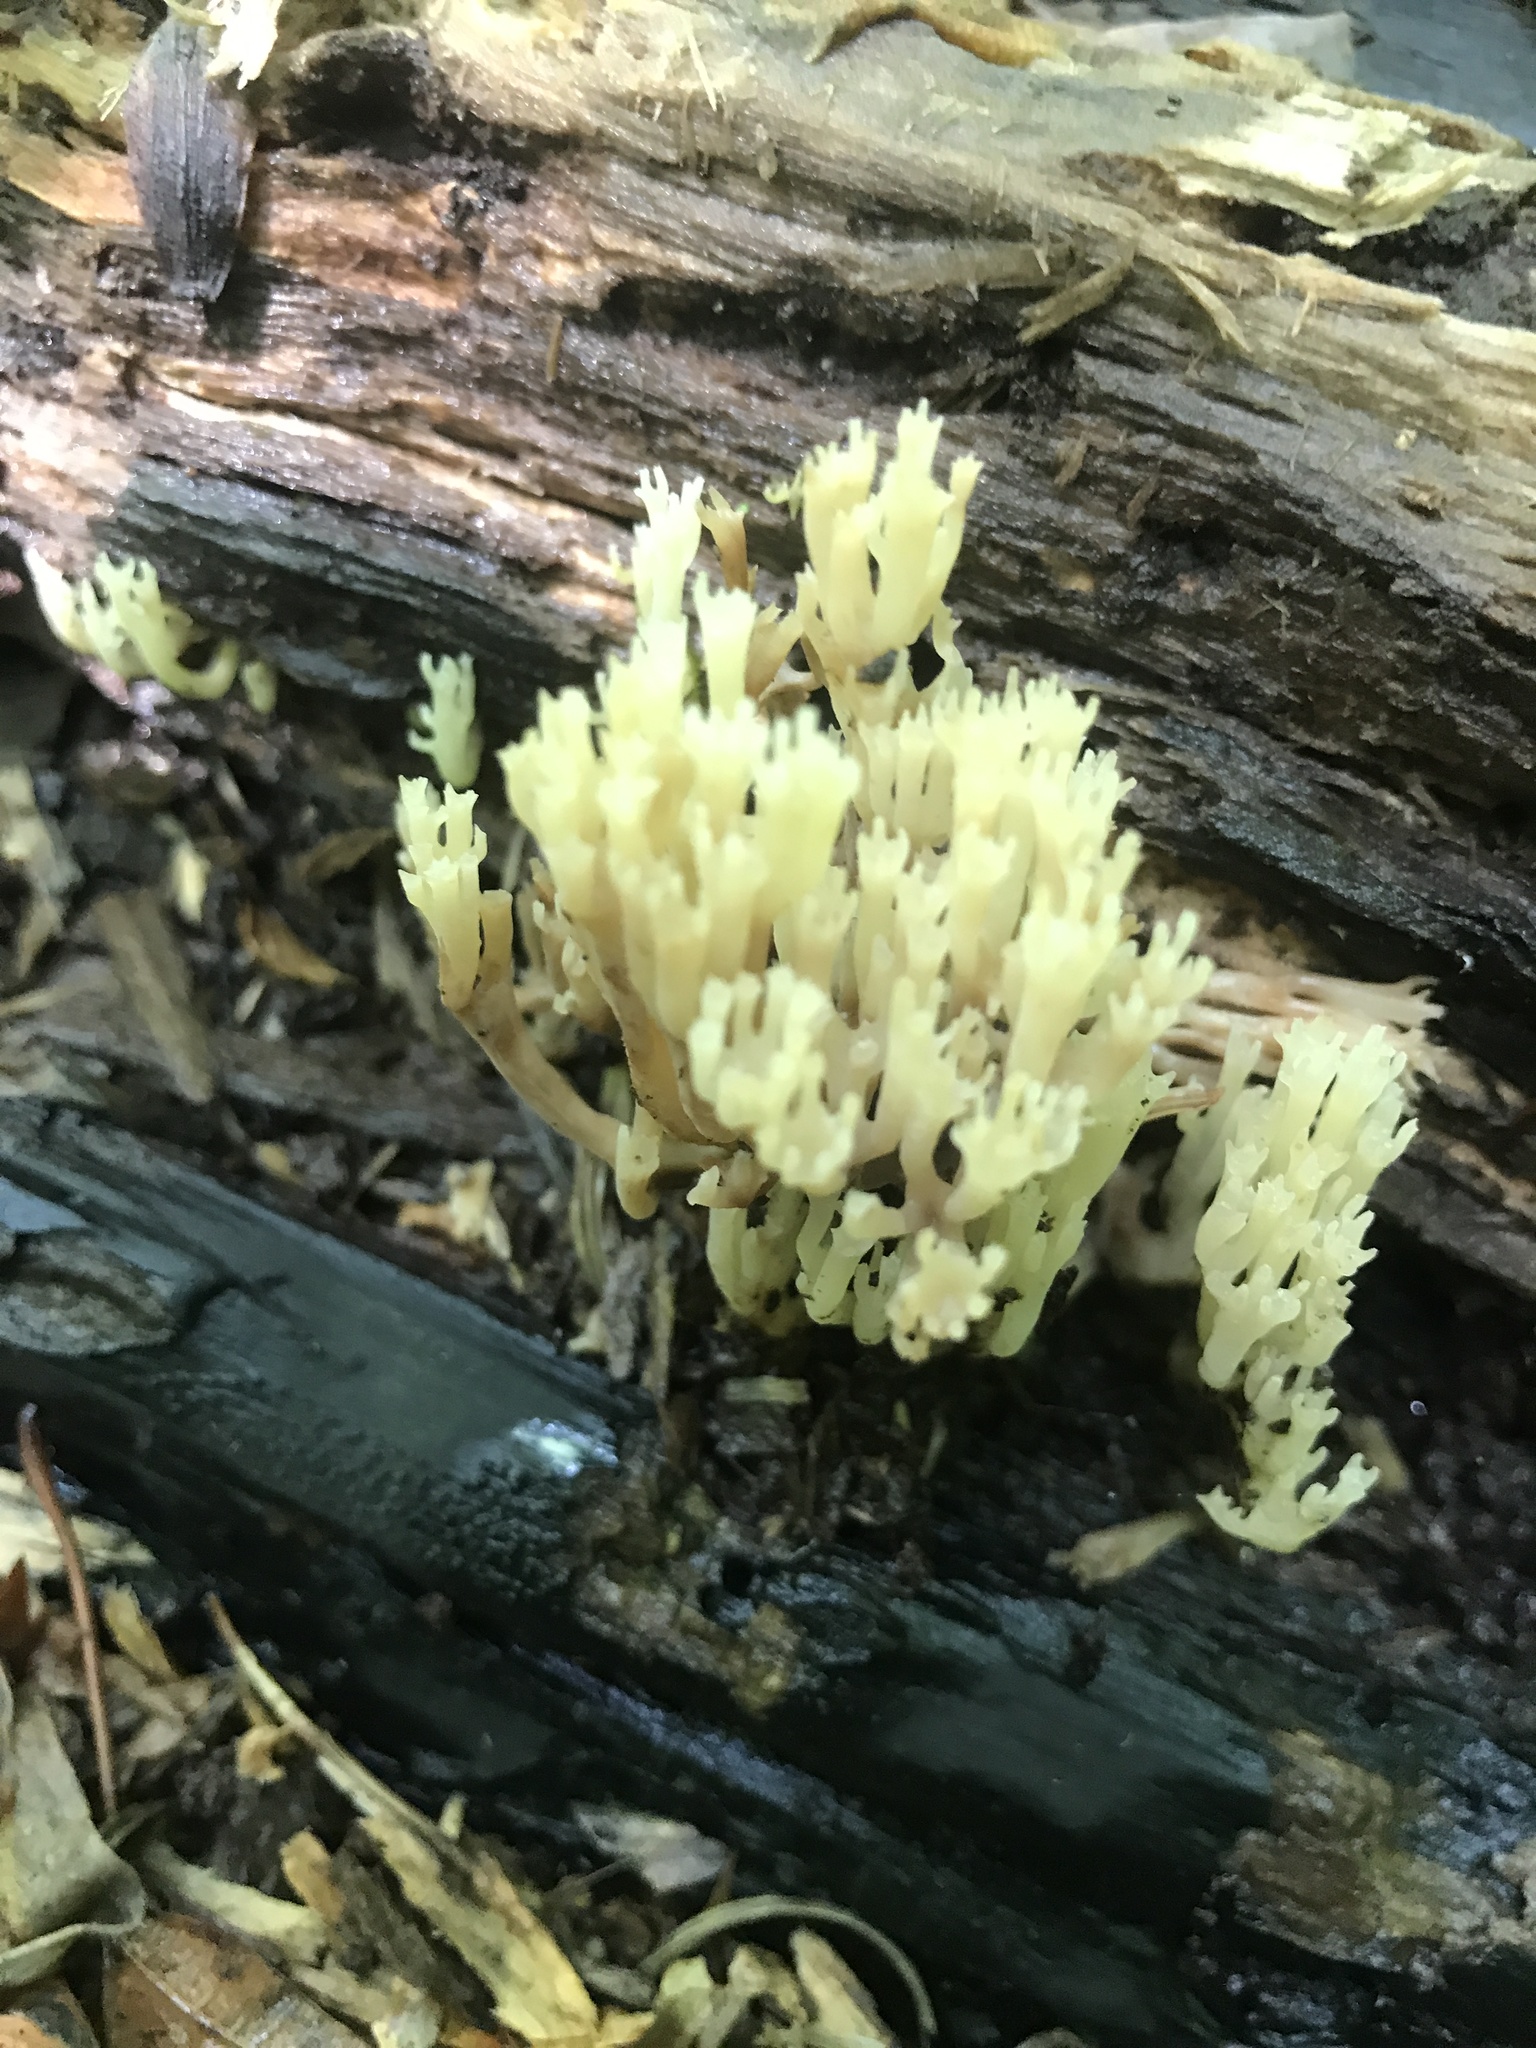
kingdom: Fungi
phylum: Basidiomycota
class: Agaricomycetes
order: Russulales
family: Auriscalpiaceae
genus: Artomyces
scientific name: Artomyces pyxidatus
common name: Crown-tipped coral fungus
